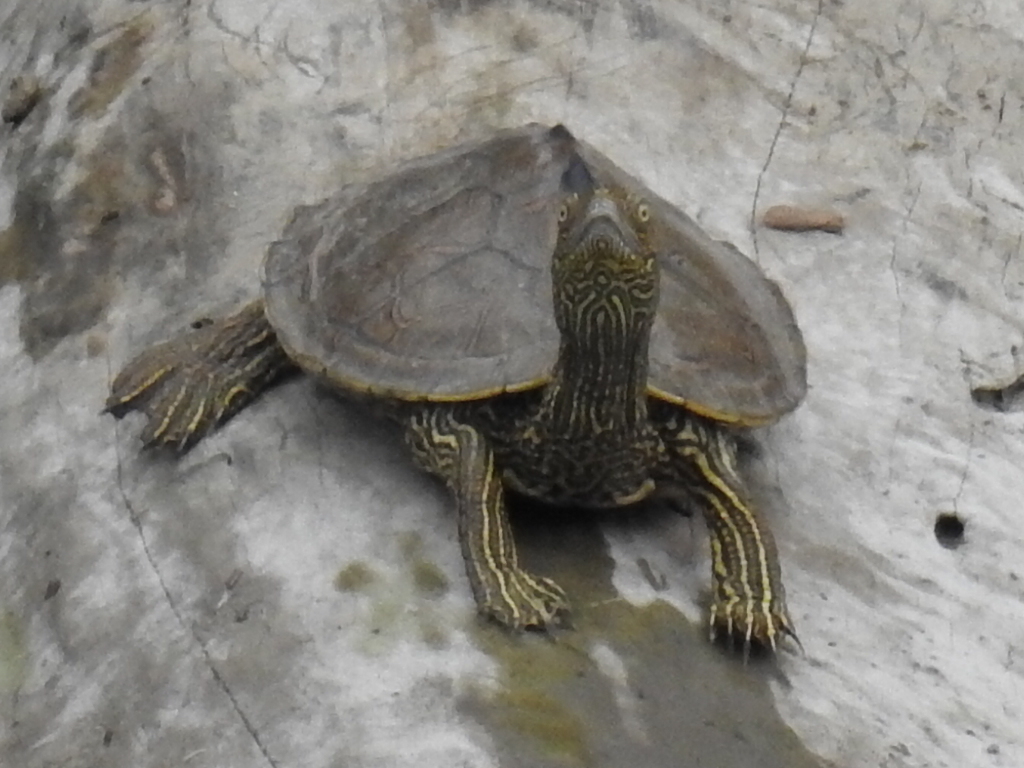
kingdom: Animalia
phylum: Chordata
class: Testudines
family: Emydidae
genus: Graptemys
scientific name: Graptemys pseudogeographica
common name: False map turtle
